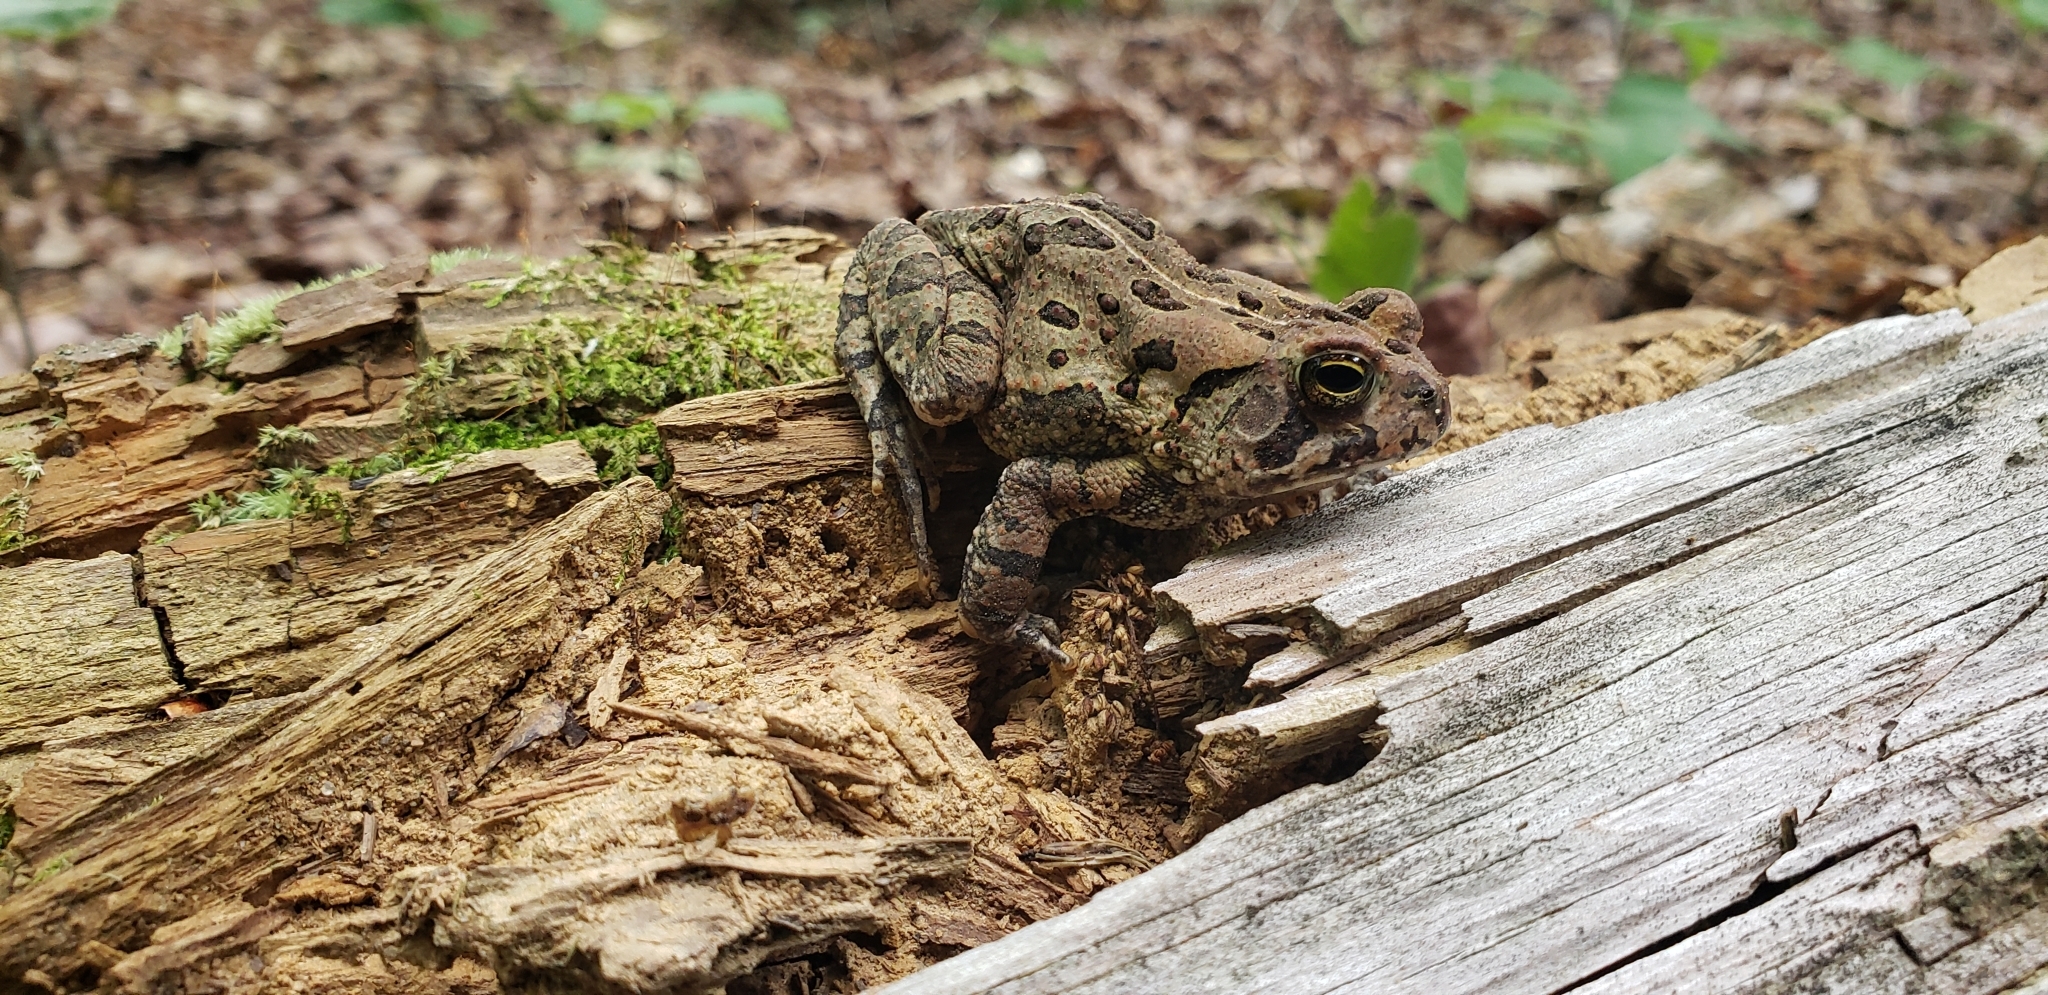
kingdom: Animalia
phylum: Chordata
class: Amphibia
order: Anura
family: Bufonidae
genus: Anaxyrus
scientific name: Anaxyrus fowleri
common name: Fowler's toad
